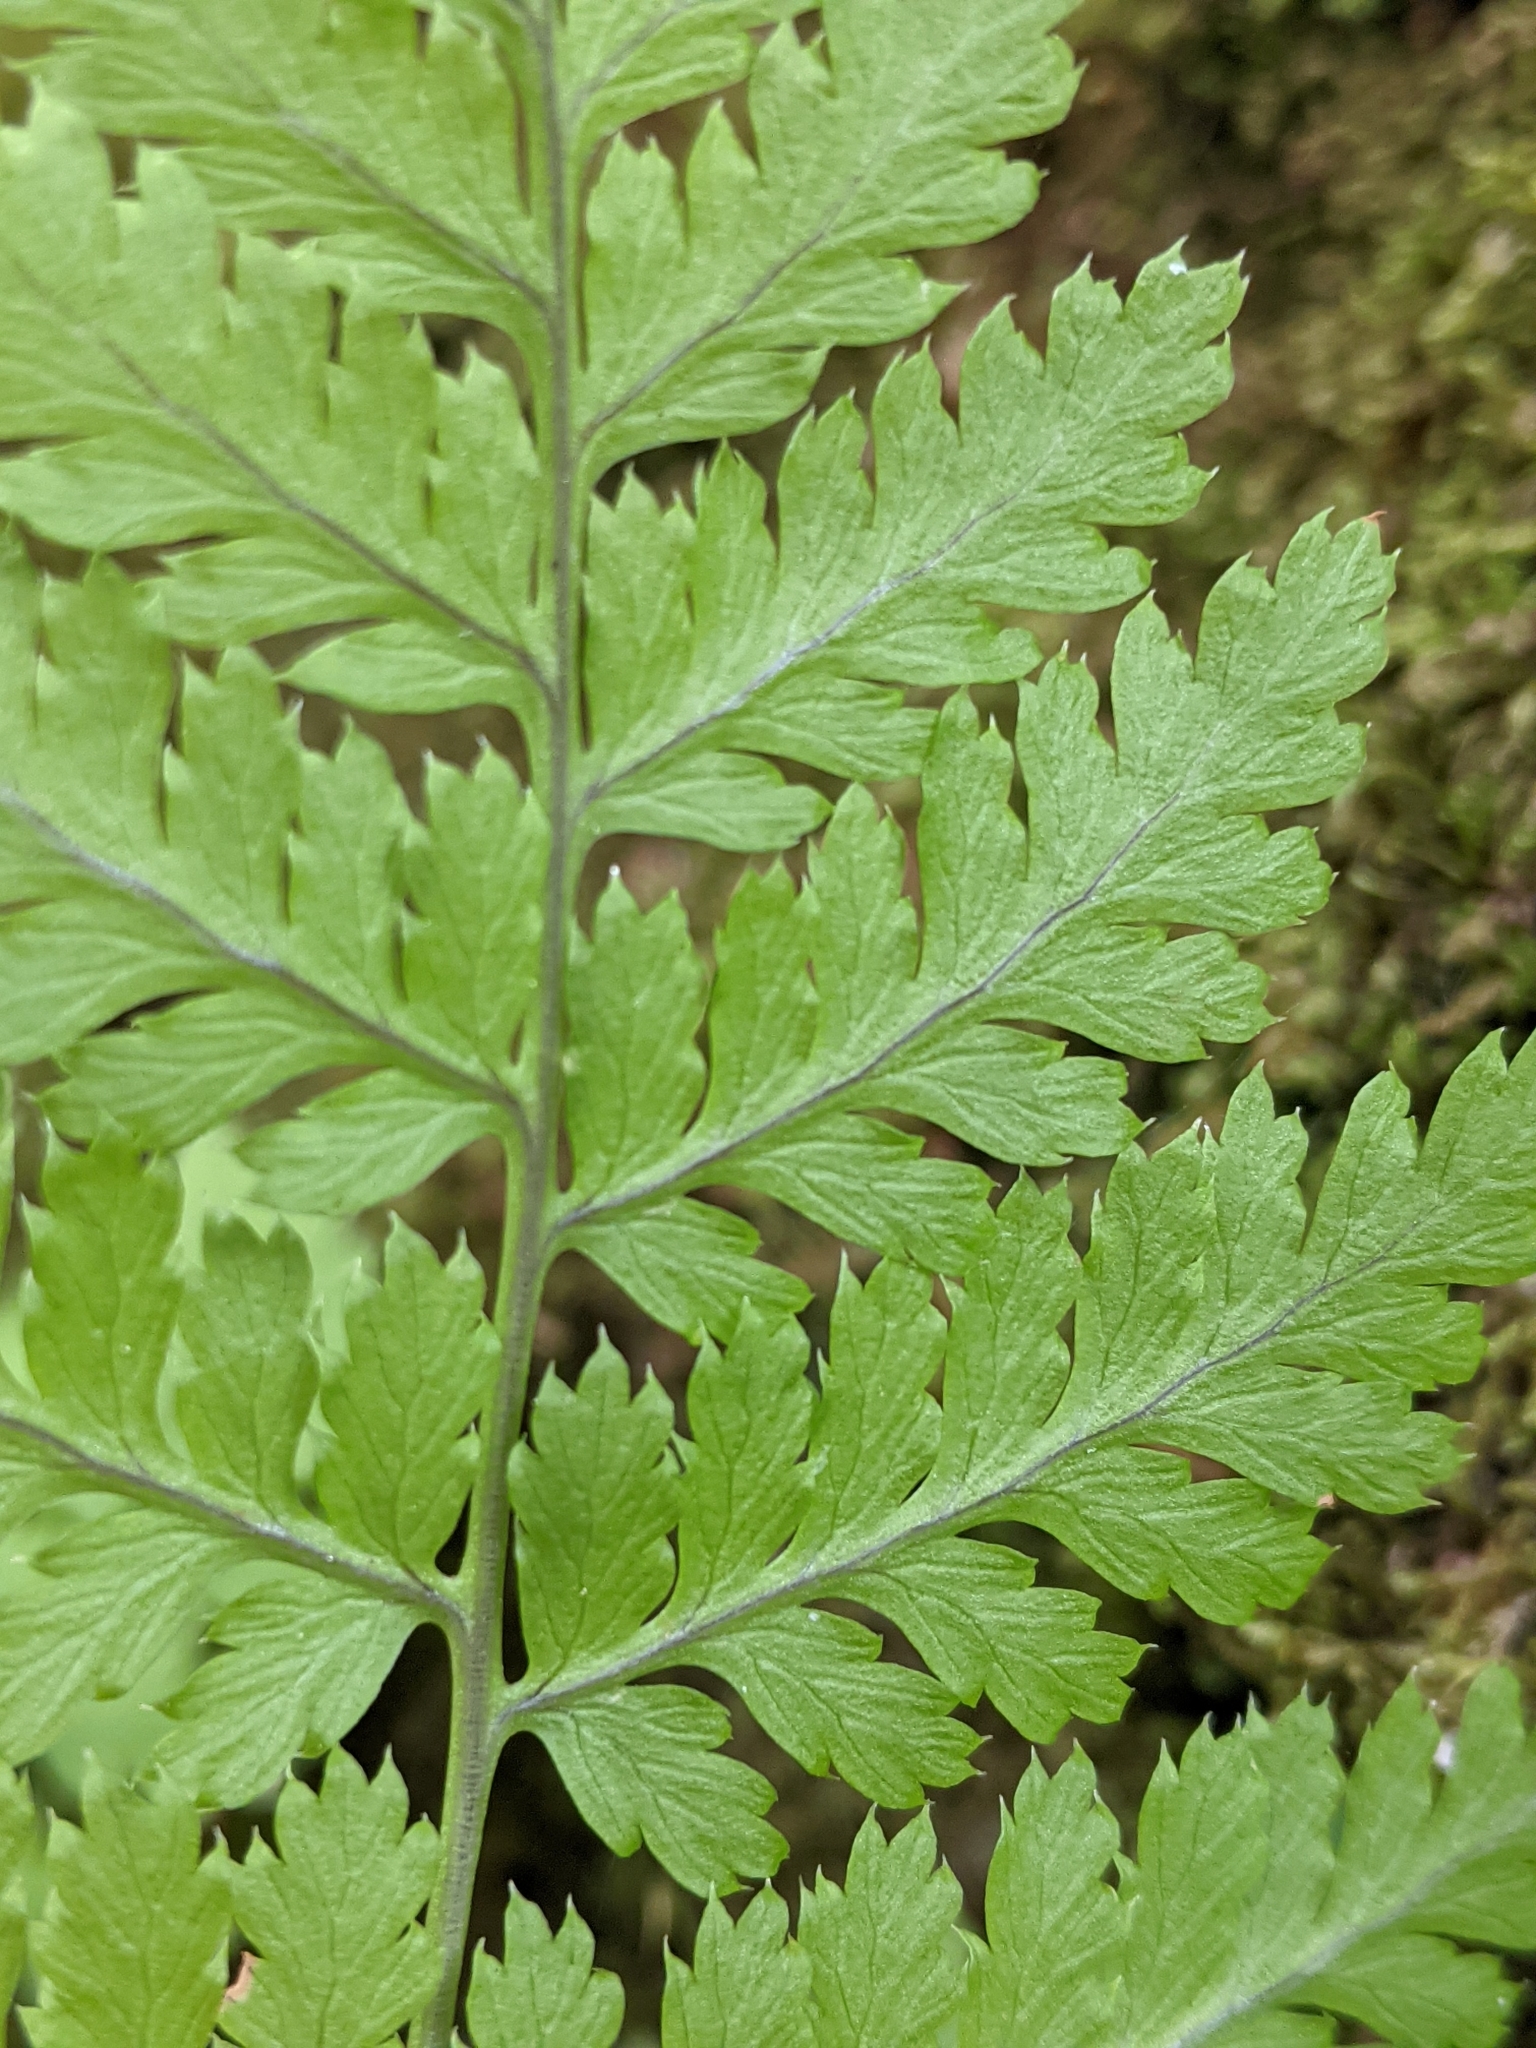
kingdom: Plantae
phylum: Tracheophyta
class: Polypodiopsida
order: Polypodiales
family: Dryopteridaceae
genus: Dryopteris
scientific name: Dryopteris campyloptera
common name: Mountain wood fern
